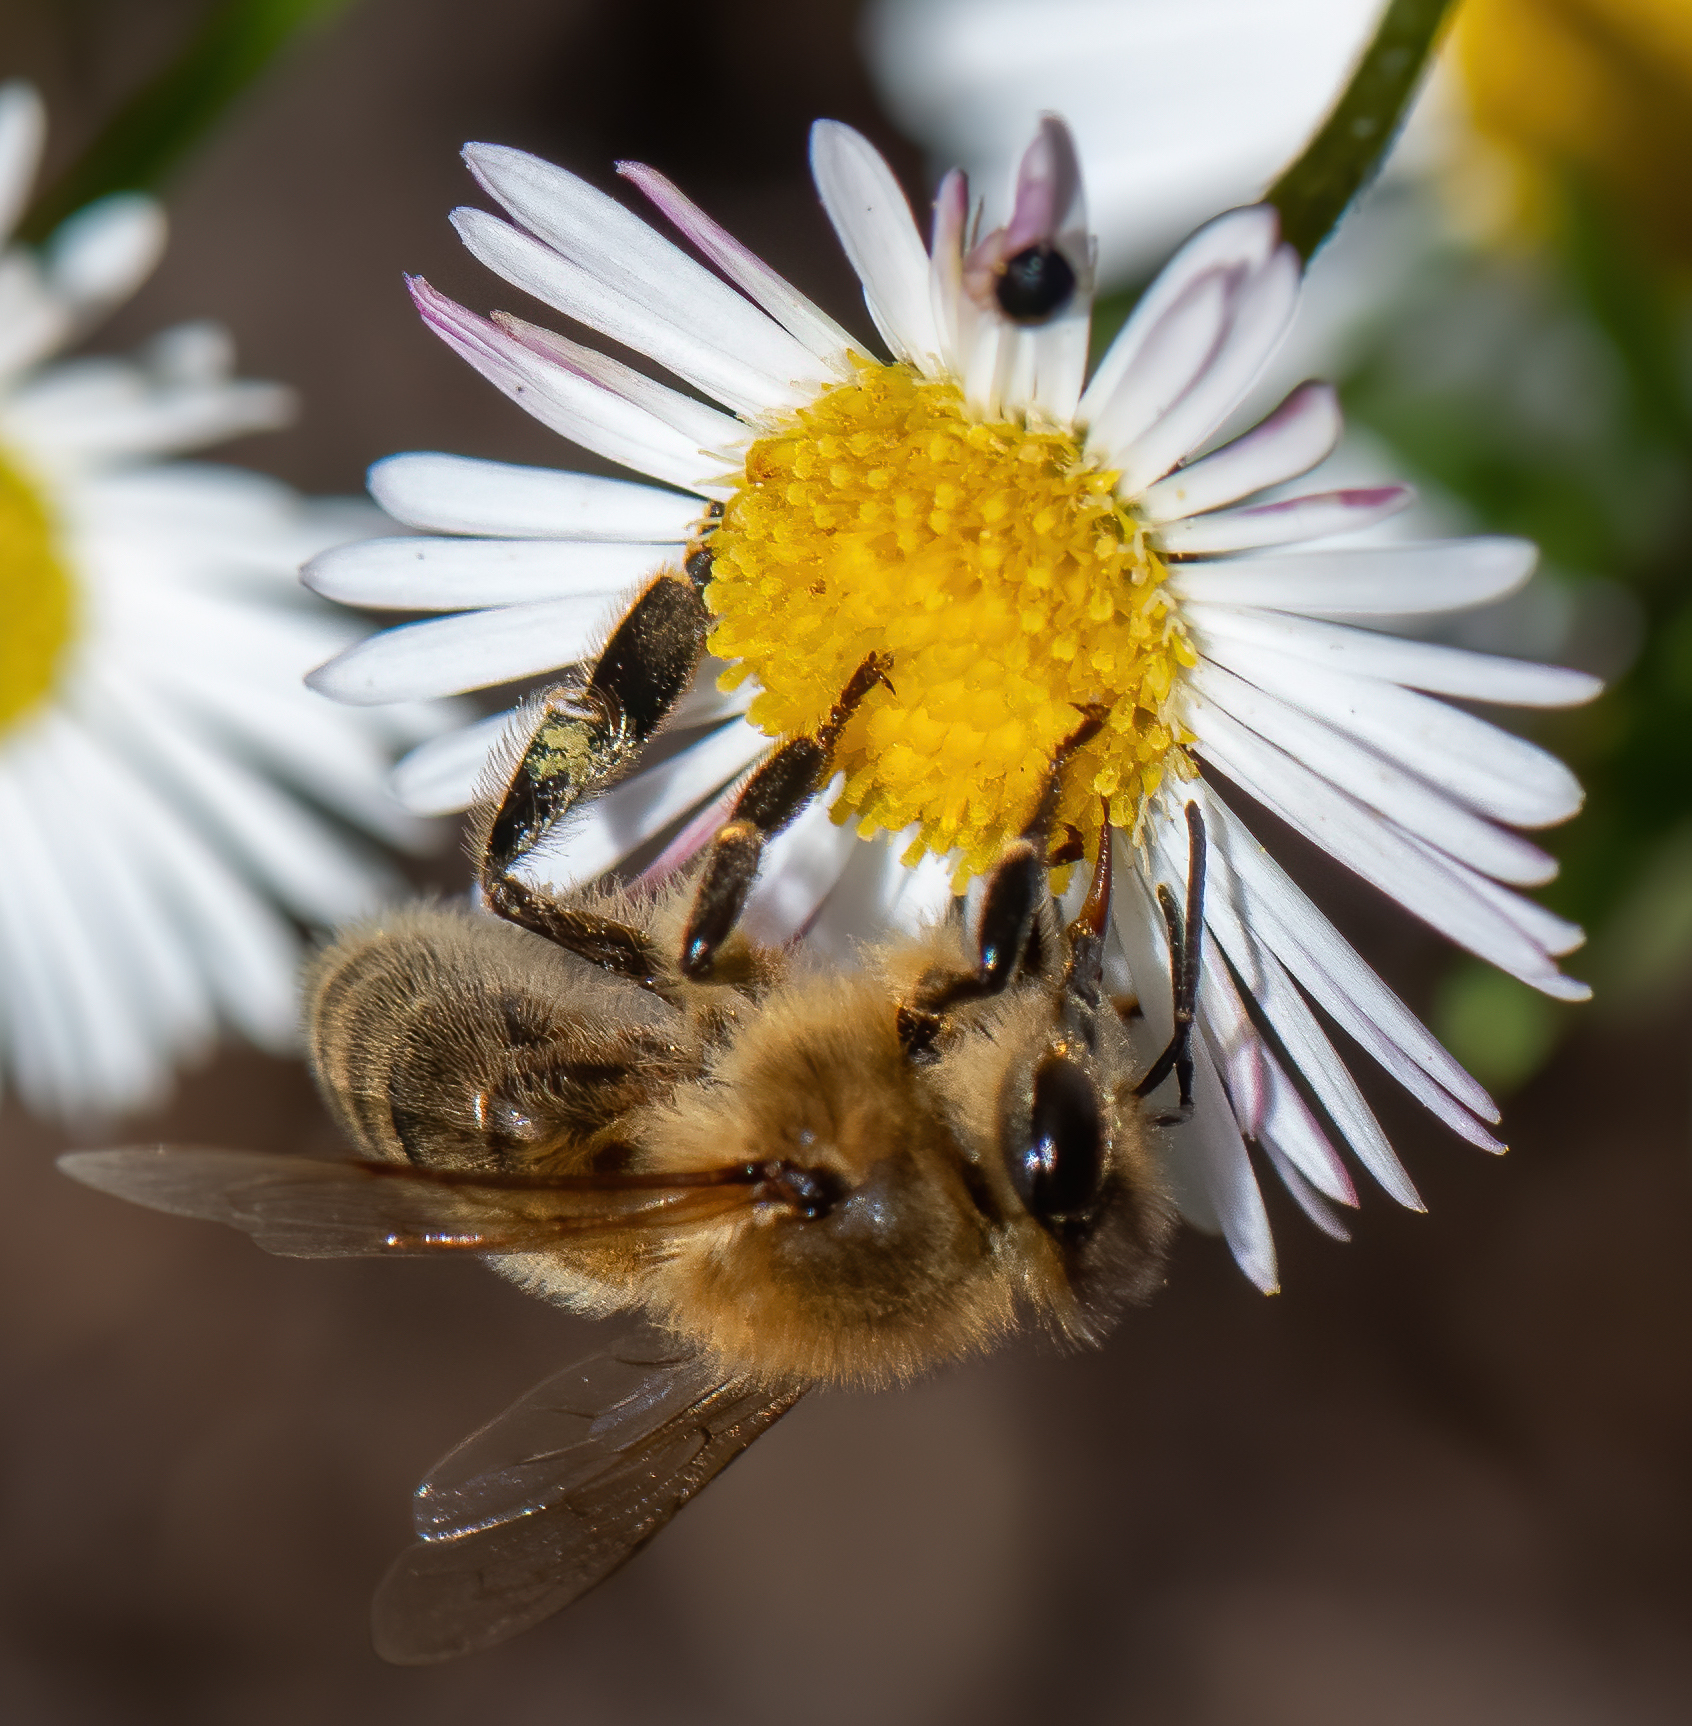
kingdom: Animalia
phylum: Arthropoda
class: Insecta
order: Hymenoptera
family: Apidae
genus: Apis
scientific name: Apis mellifera
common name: Honey bee
